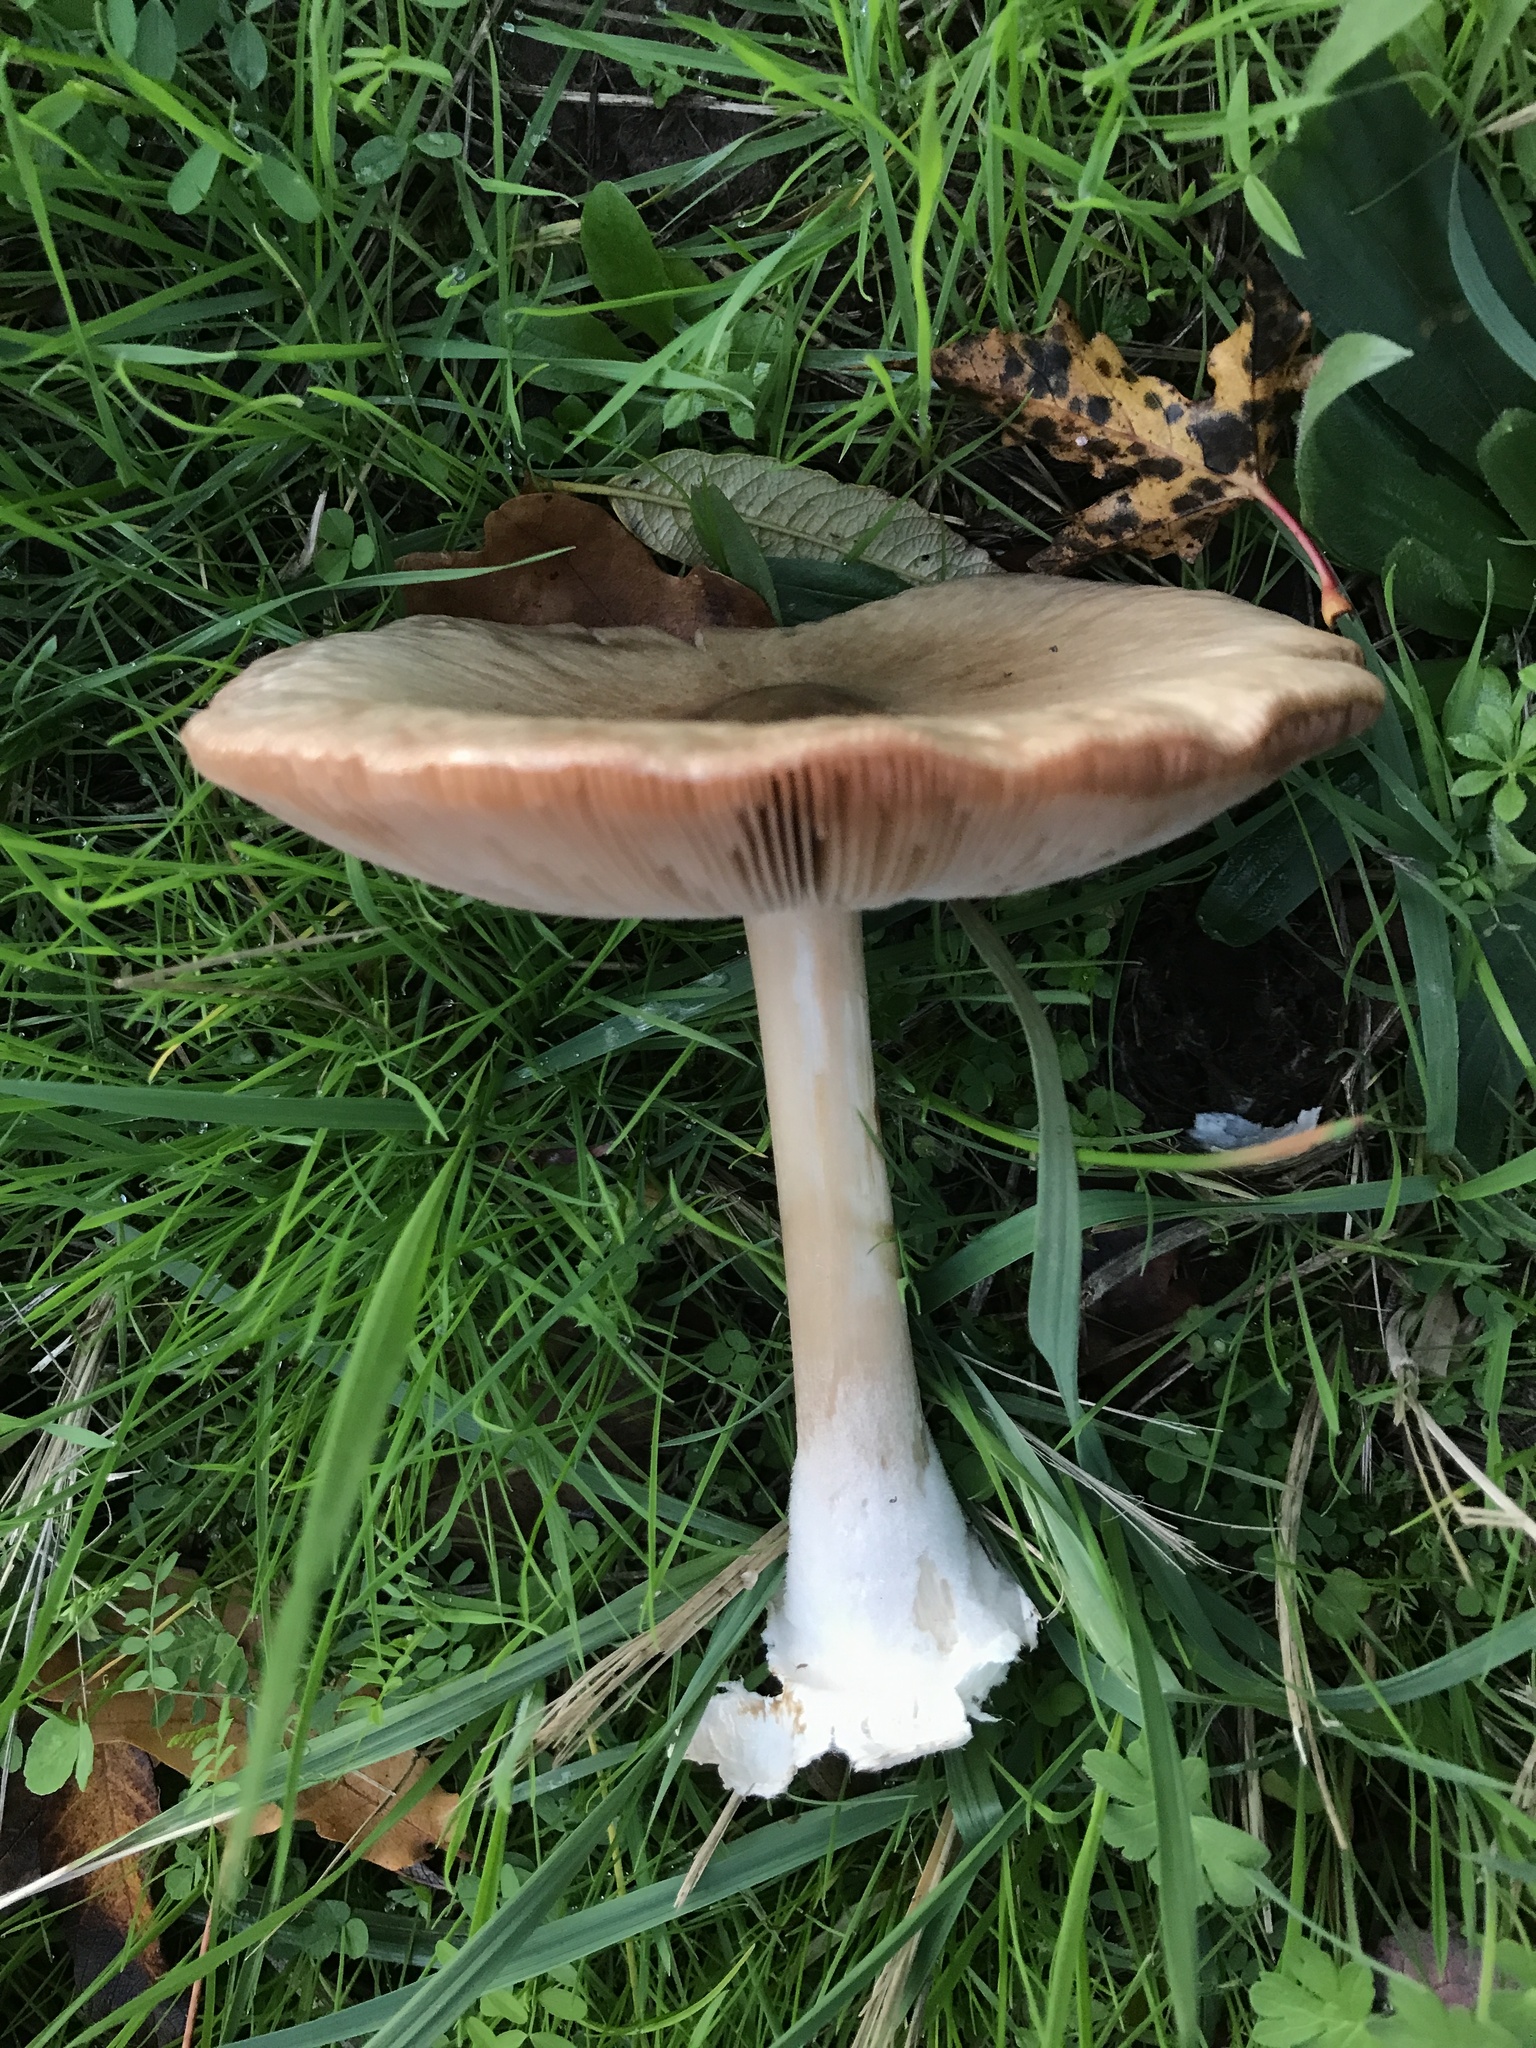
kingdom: Fungi
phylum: Basidiomycota
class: Agaricomycetes
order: Agaricales
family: Pluteaceae
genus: Volvopluteus
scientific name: Volvopluteus gloiocephalus
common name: Stubble rosegill
